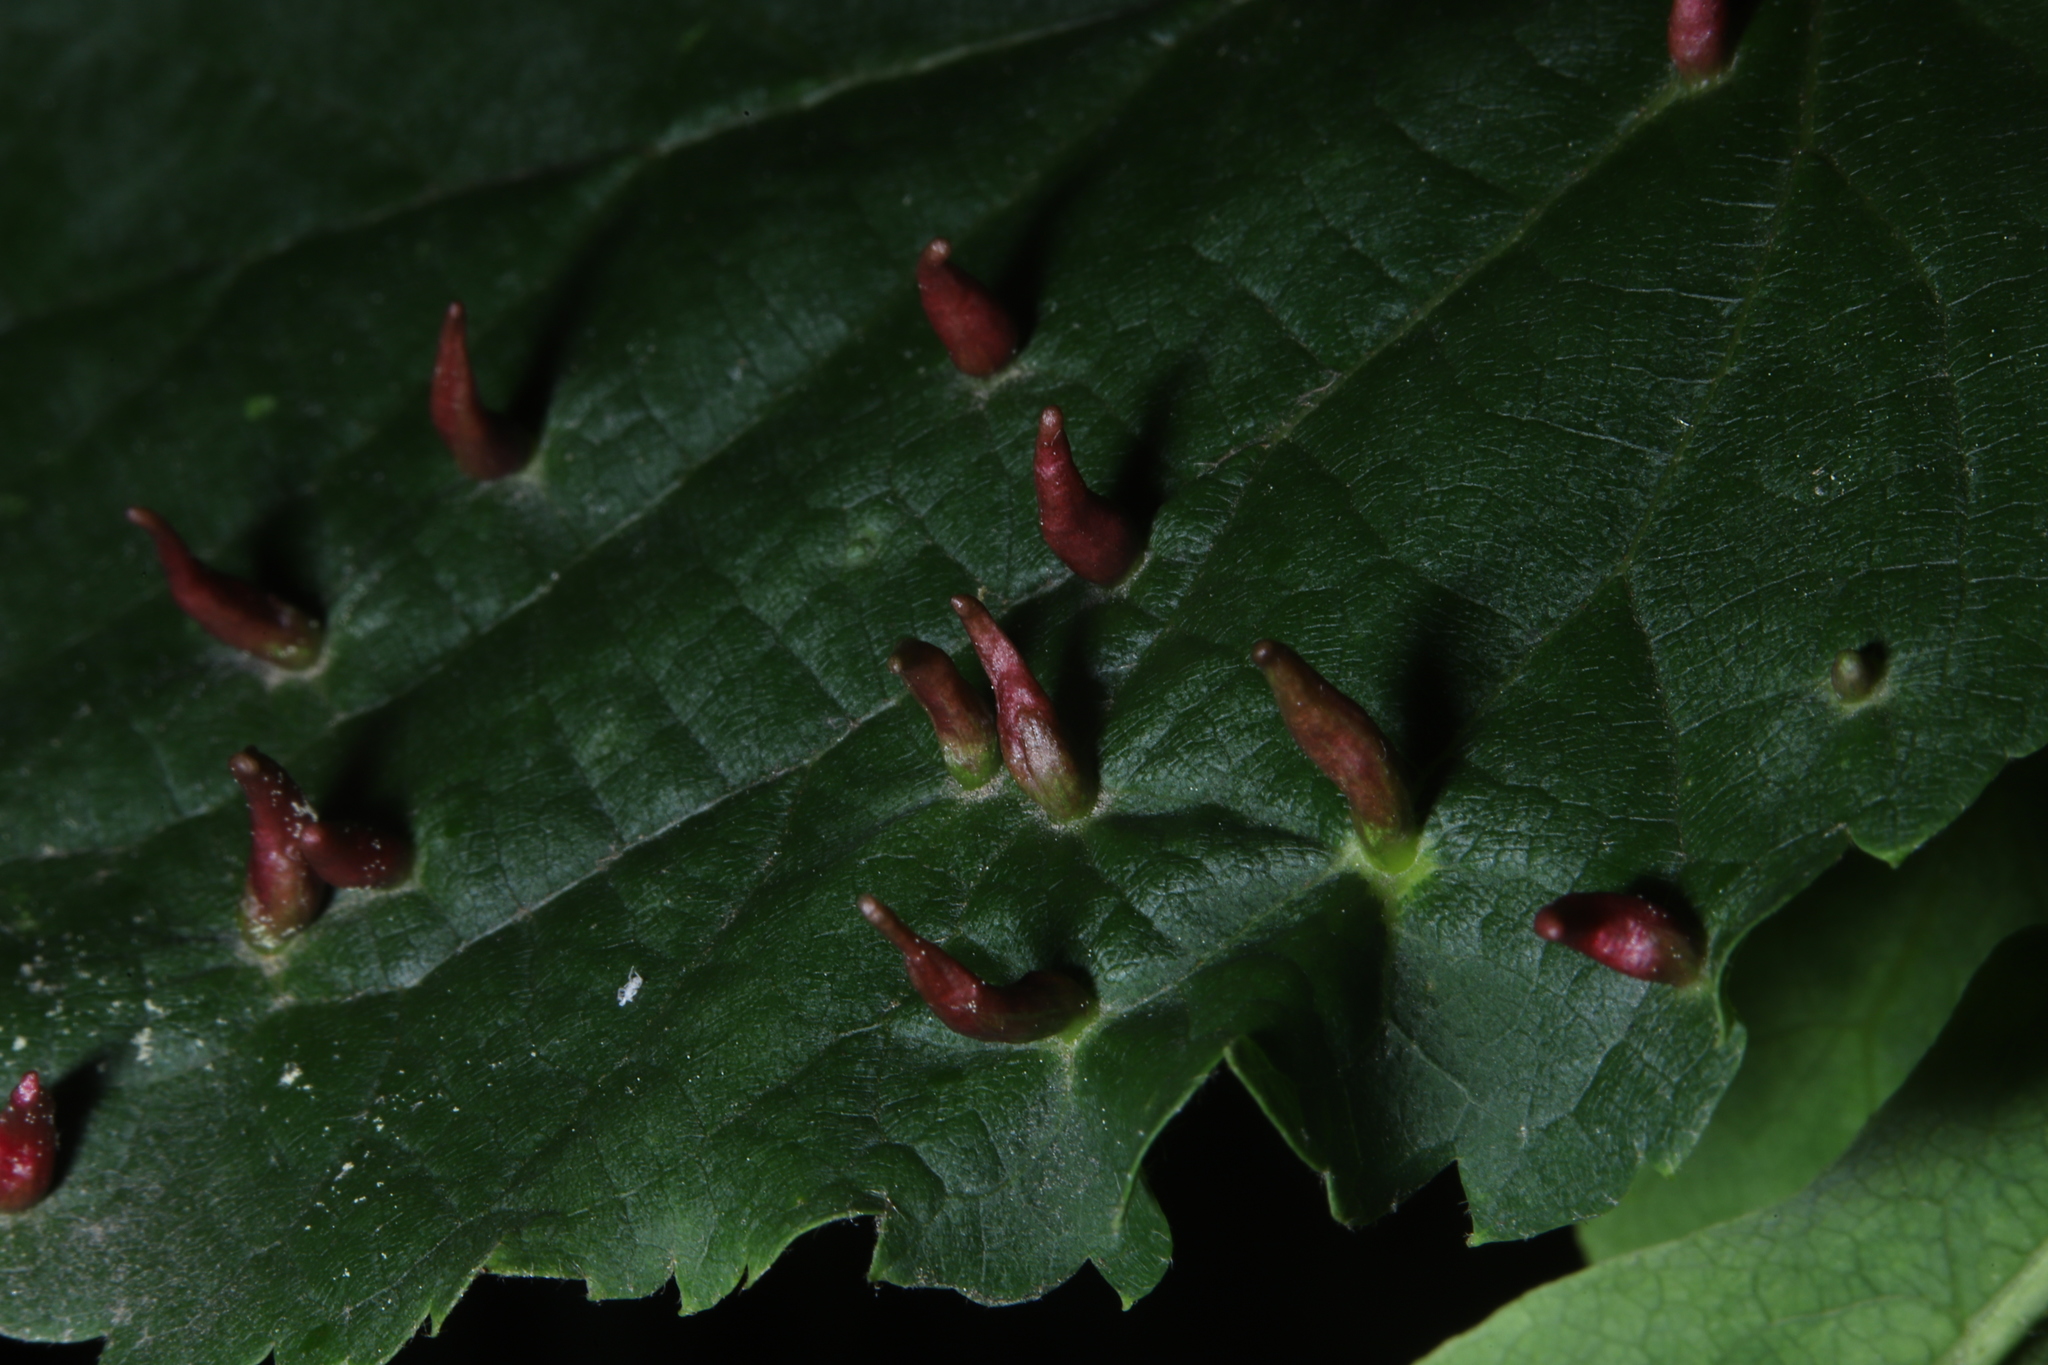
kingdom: Animalia
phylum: Arthropoda
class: Arachnida
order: Trombidiformes
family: Eriophyidae
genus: Eriophyes
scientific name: Eriophyes tiliae
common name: Red nail gall mite
